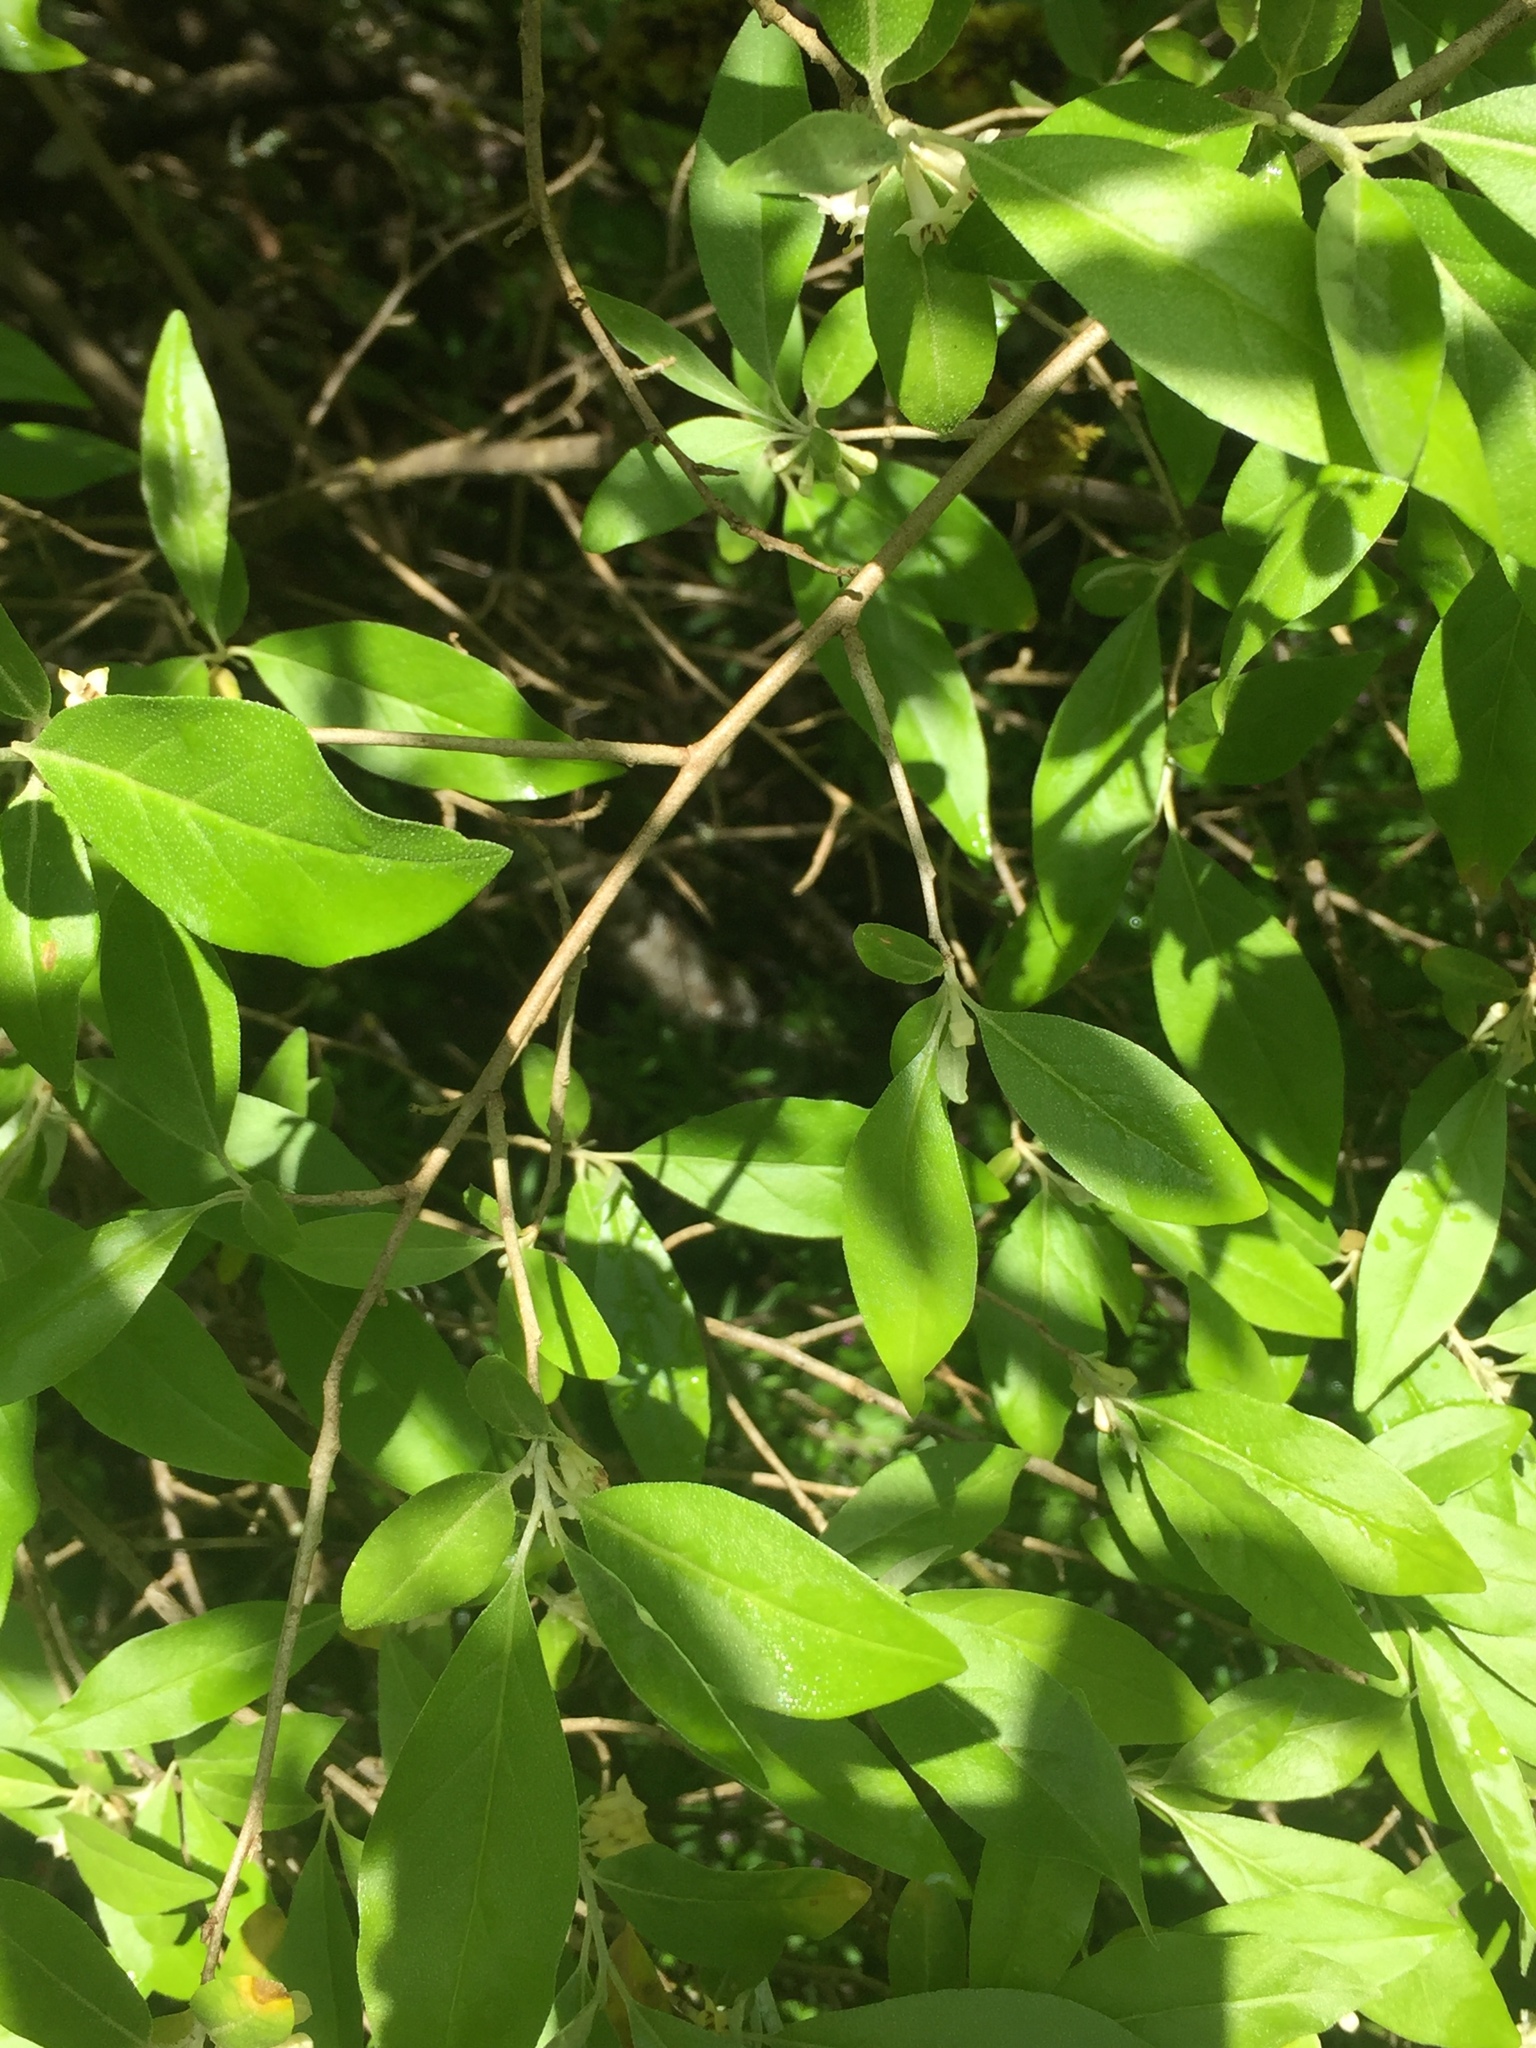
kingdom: Plantae
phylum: Tracheophyta
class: Magnoliopsida
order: Rosales
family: Elaeagnaceae
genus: Elaeagnus
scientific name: Elaeagnus umbellata
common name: Autumn olive
